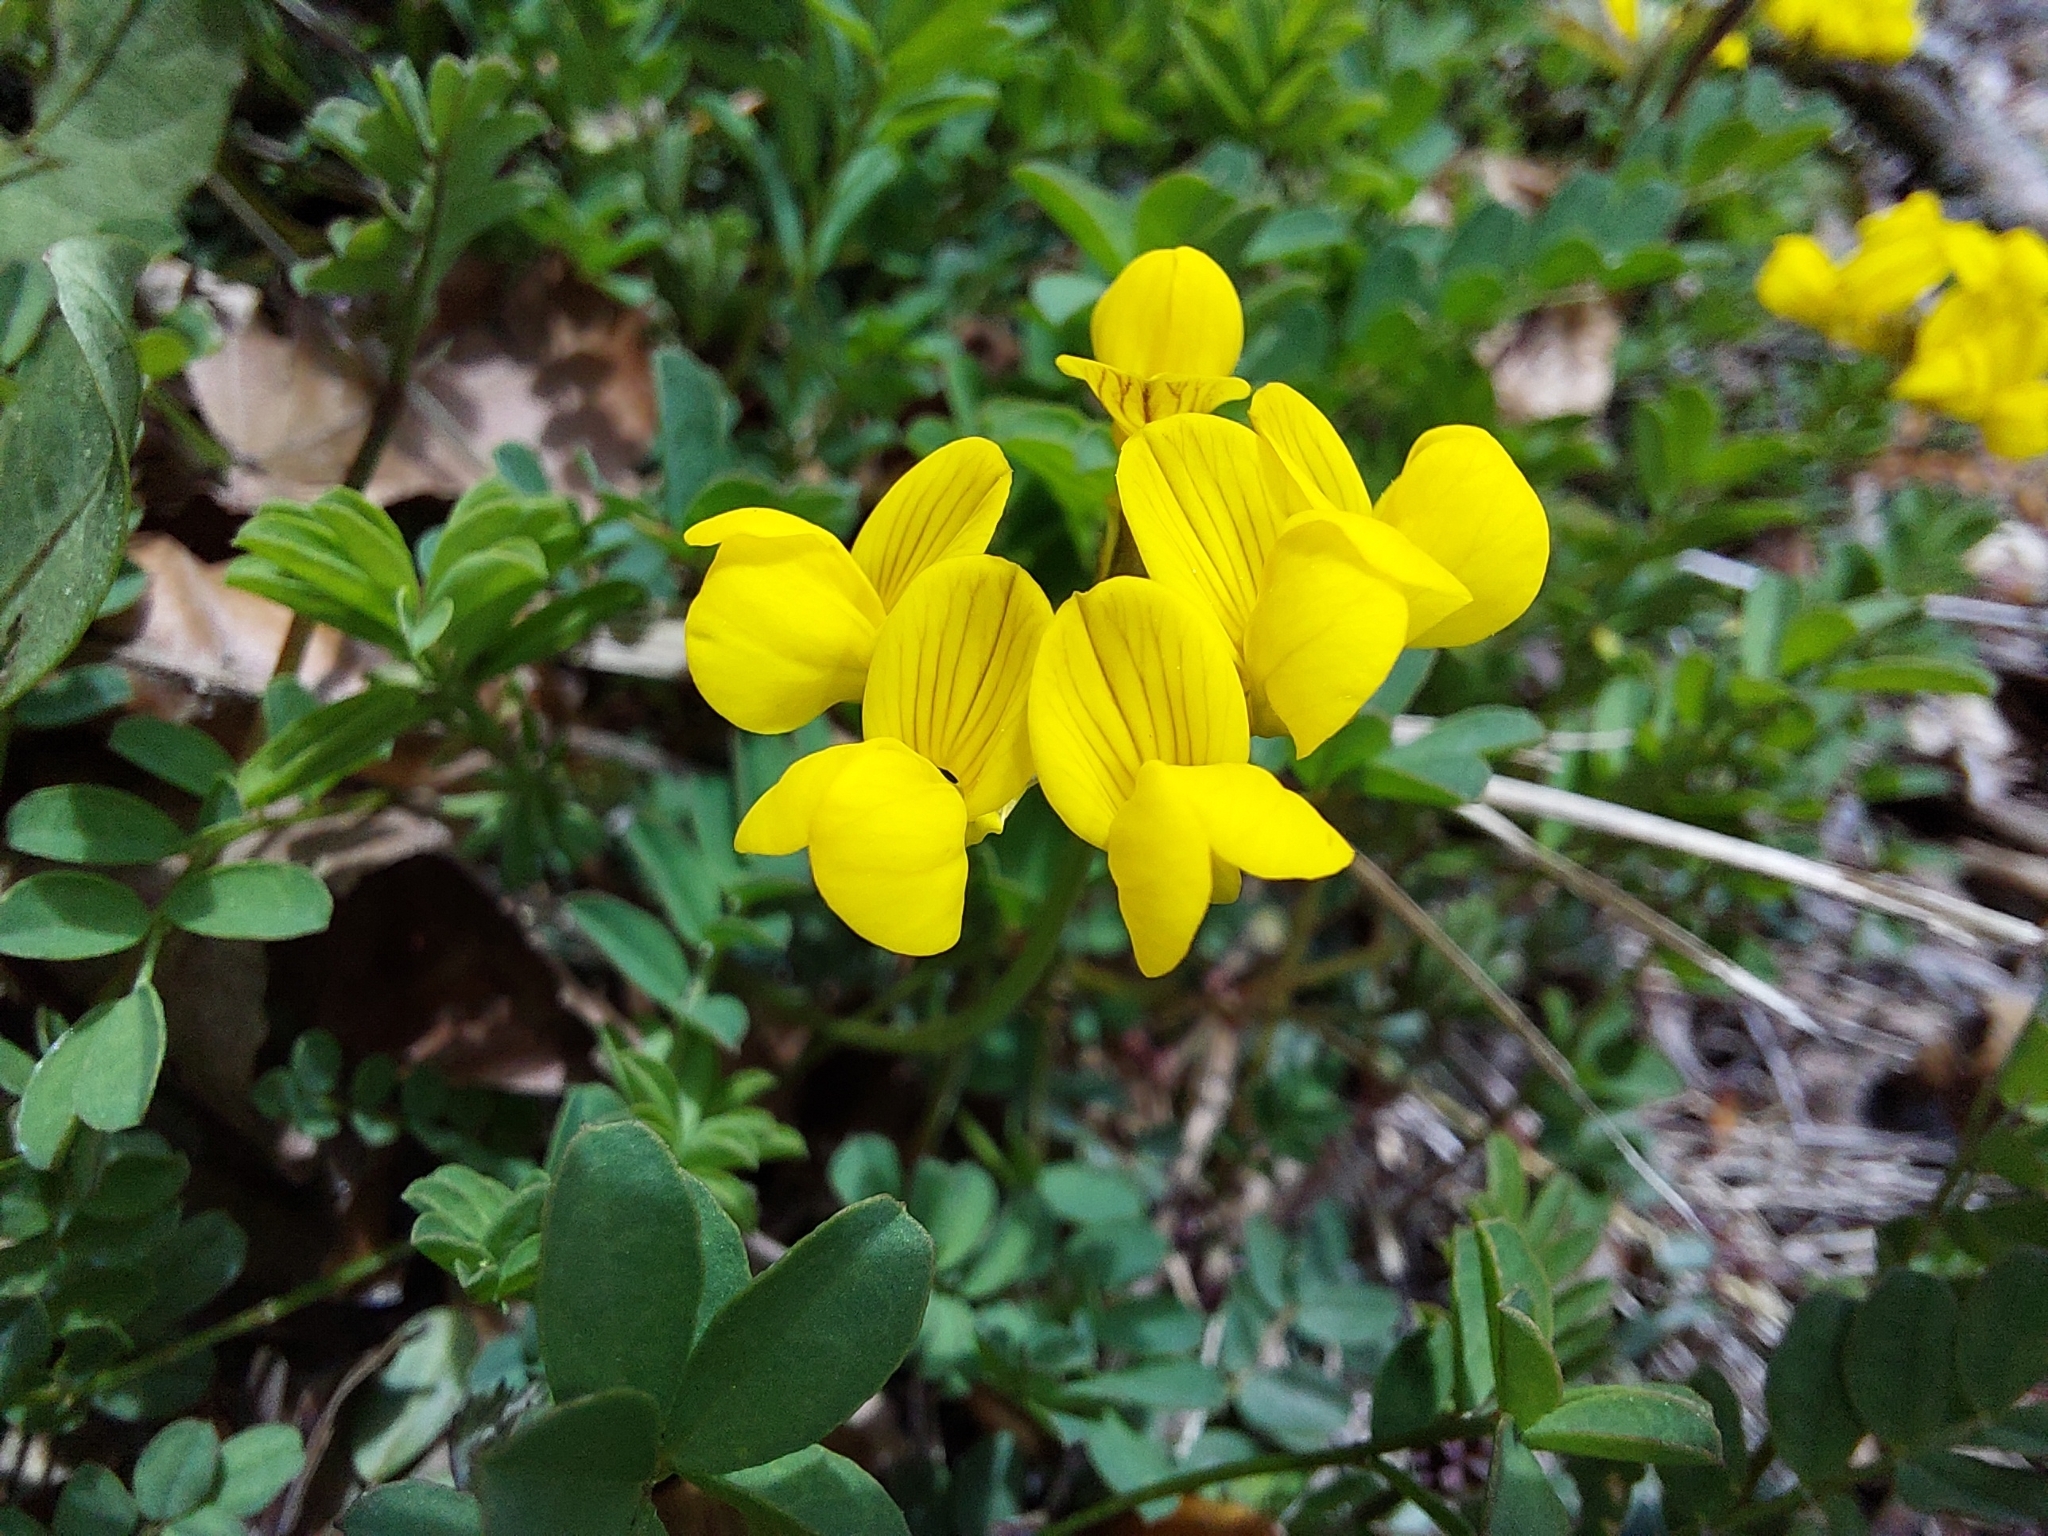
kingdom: Plantae
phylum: Tracheophyta
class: Magnoliopsida
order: Fabales
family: Fabaceae
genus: Hippocrepis
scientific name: Hippocrepis comosa
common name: Horseshoe vetch
